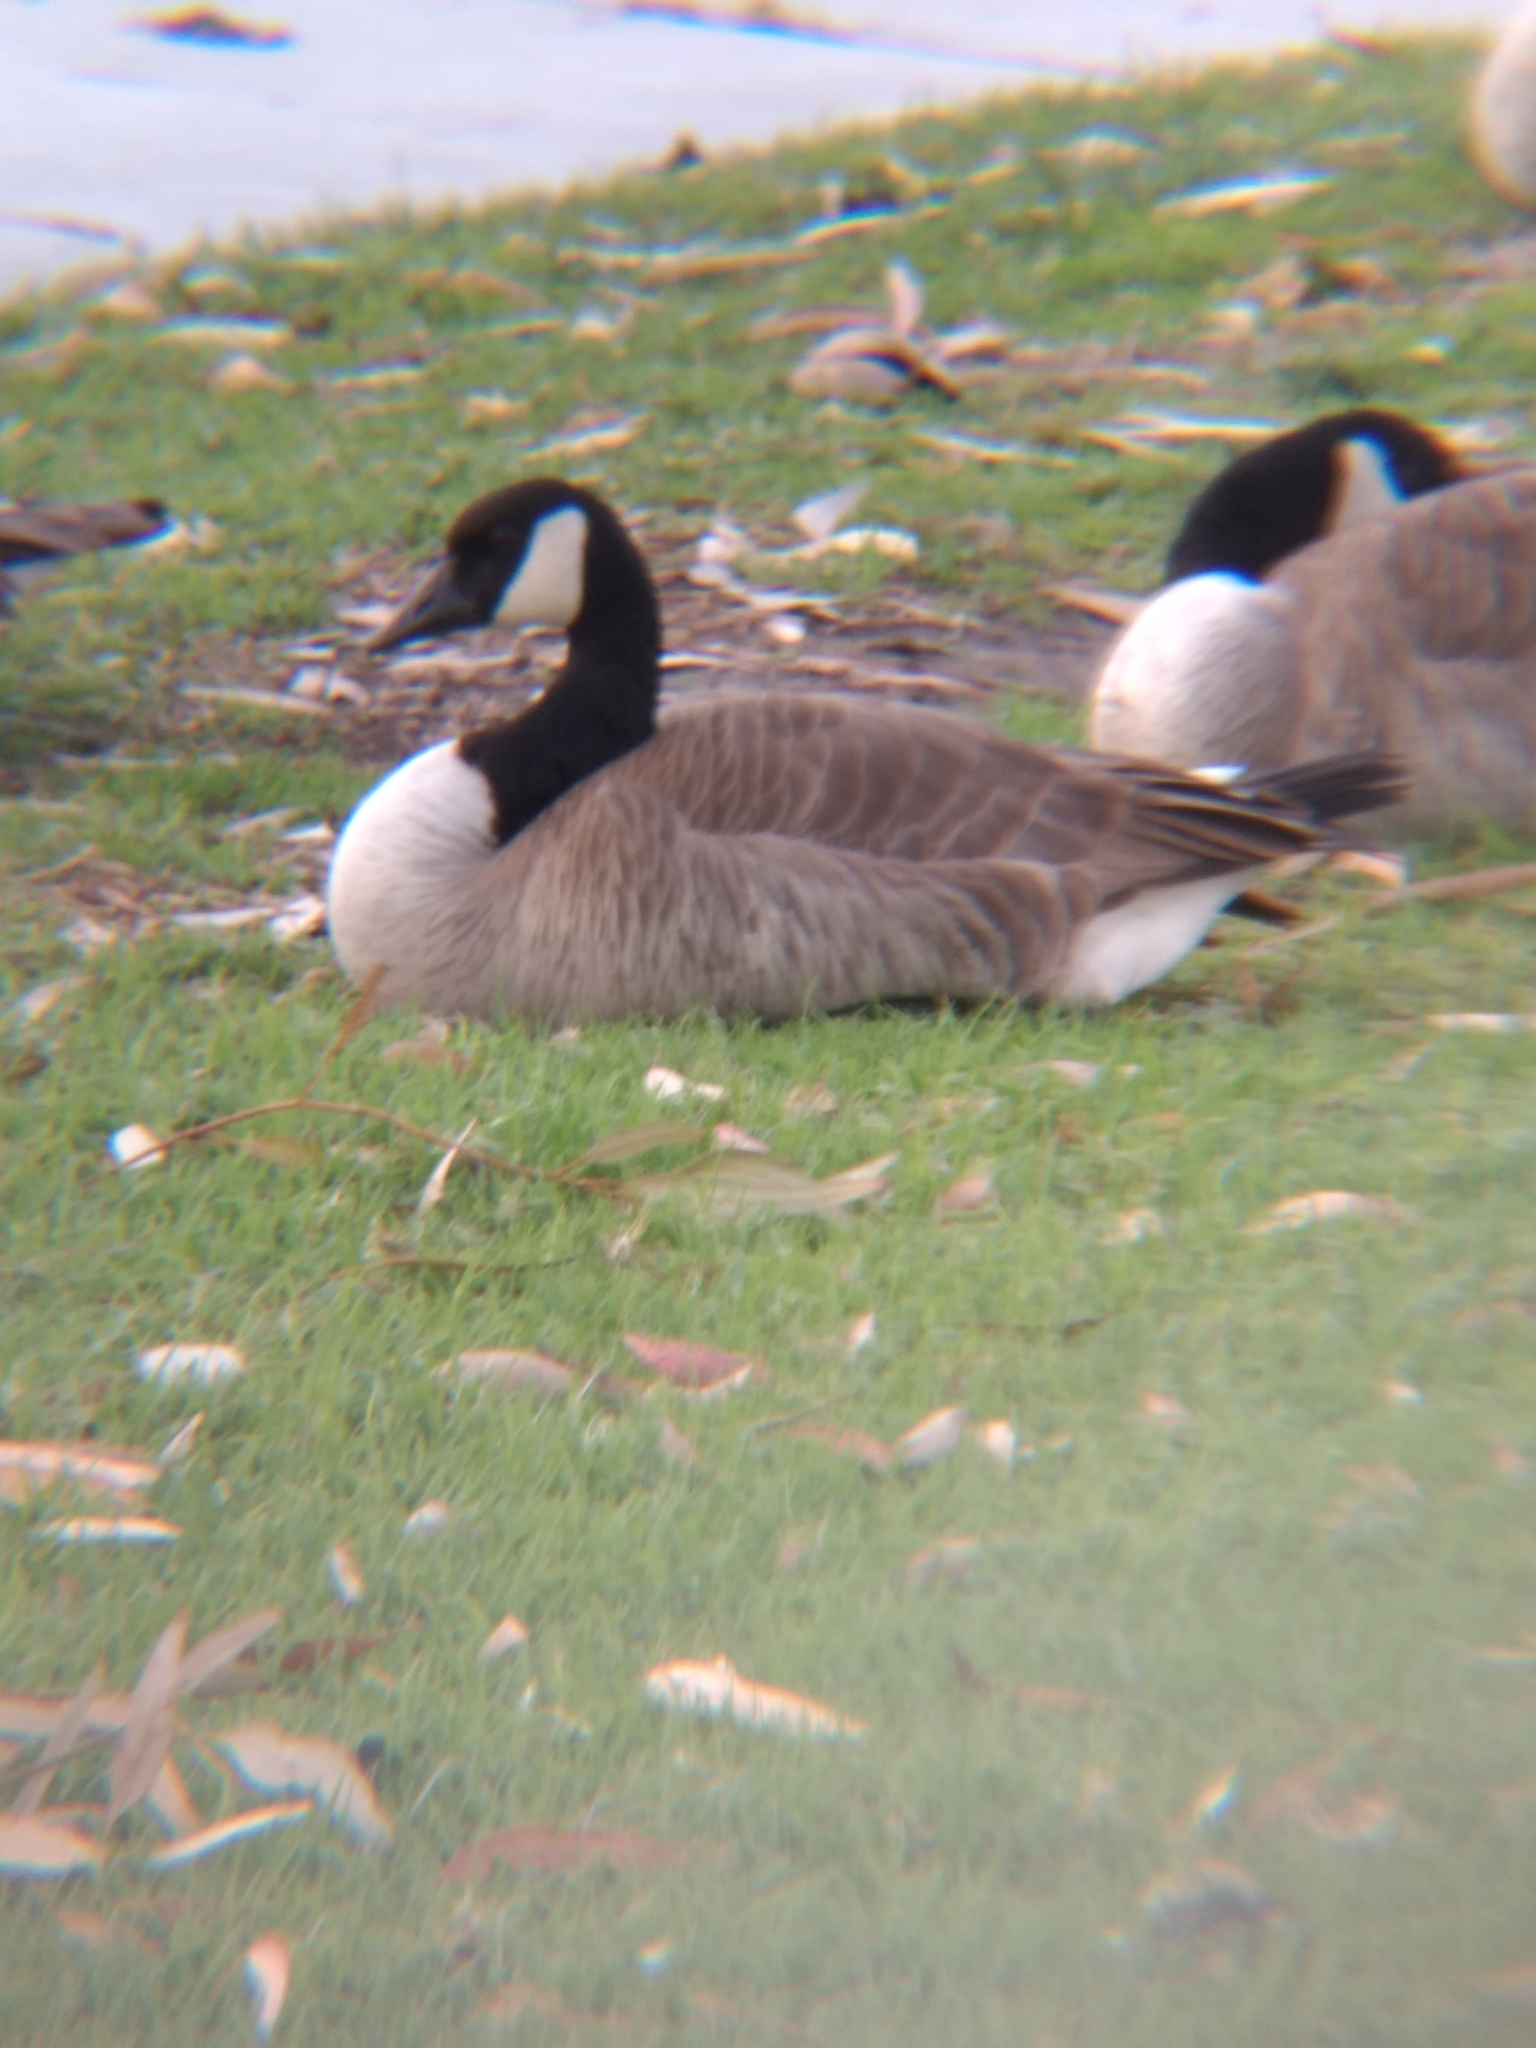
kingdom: Animalia
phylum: Chordata
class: Aves
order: Anseriformes
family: Anatidae
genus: Branta
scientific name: Branta canadensis
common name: Canada goose
